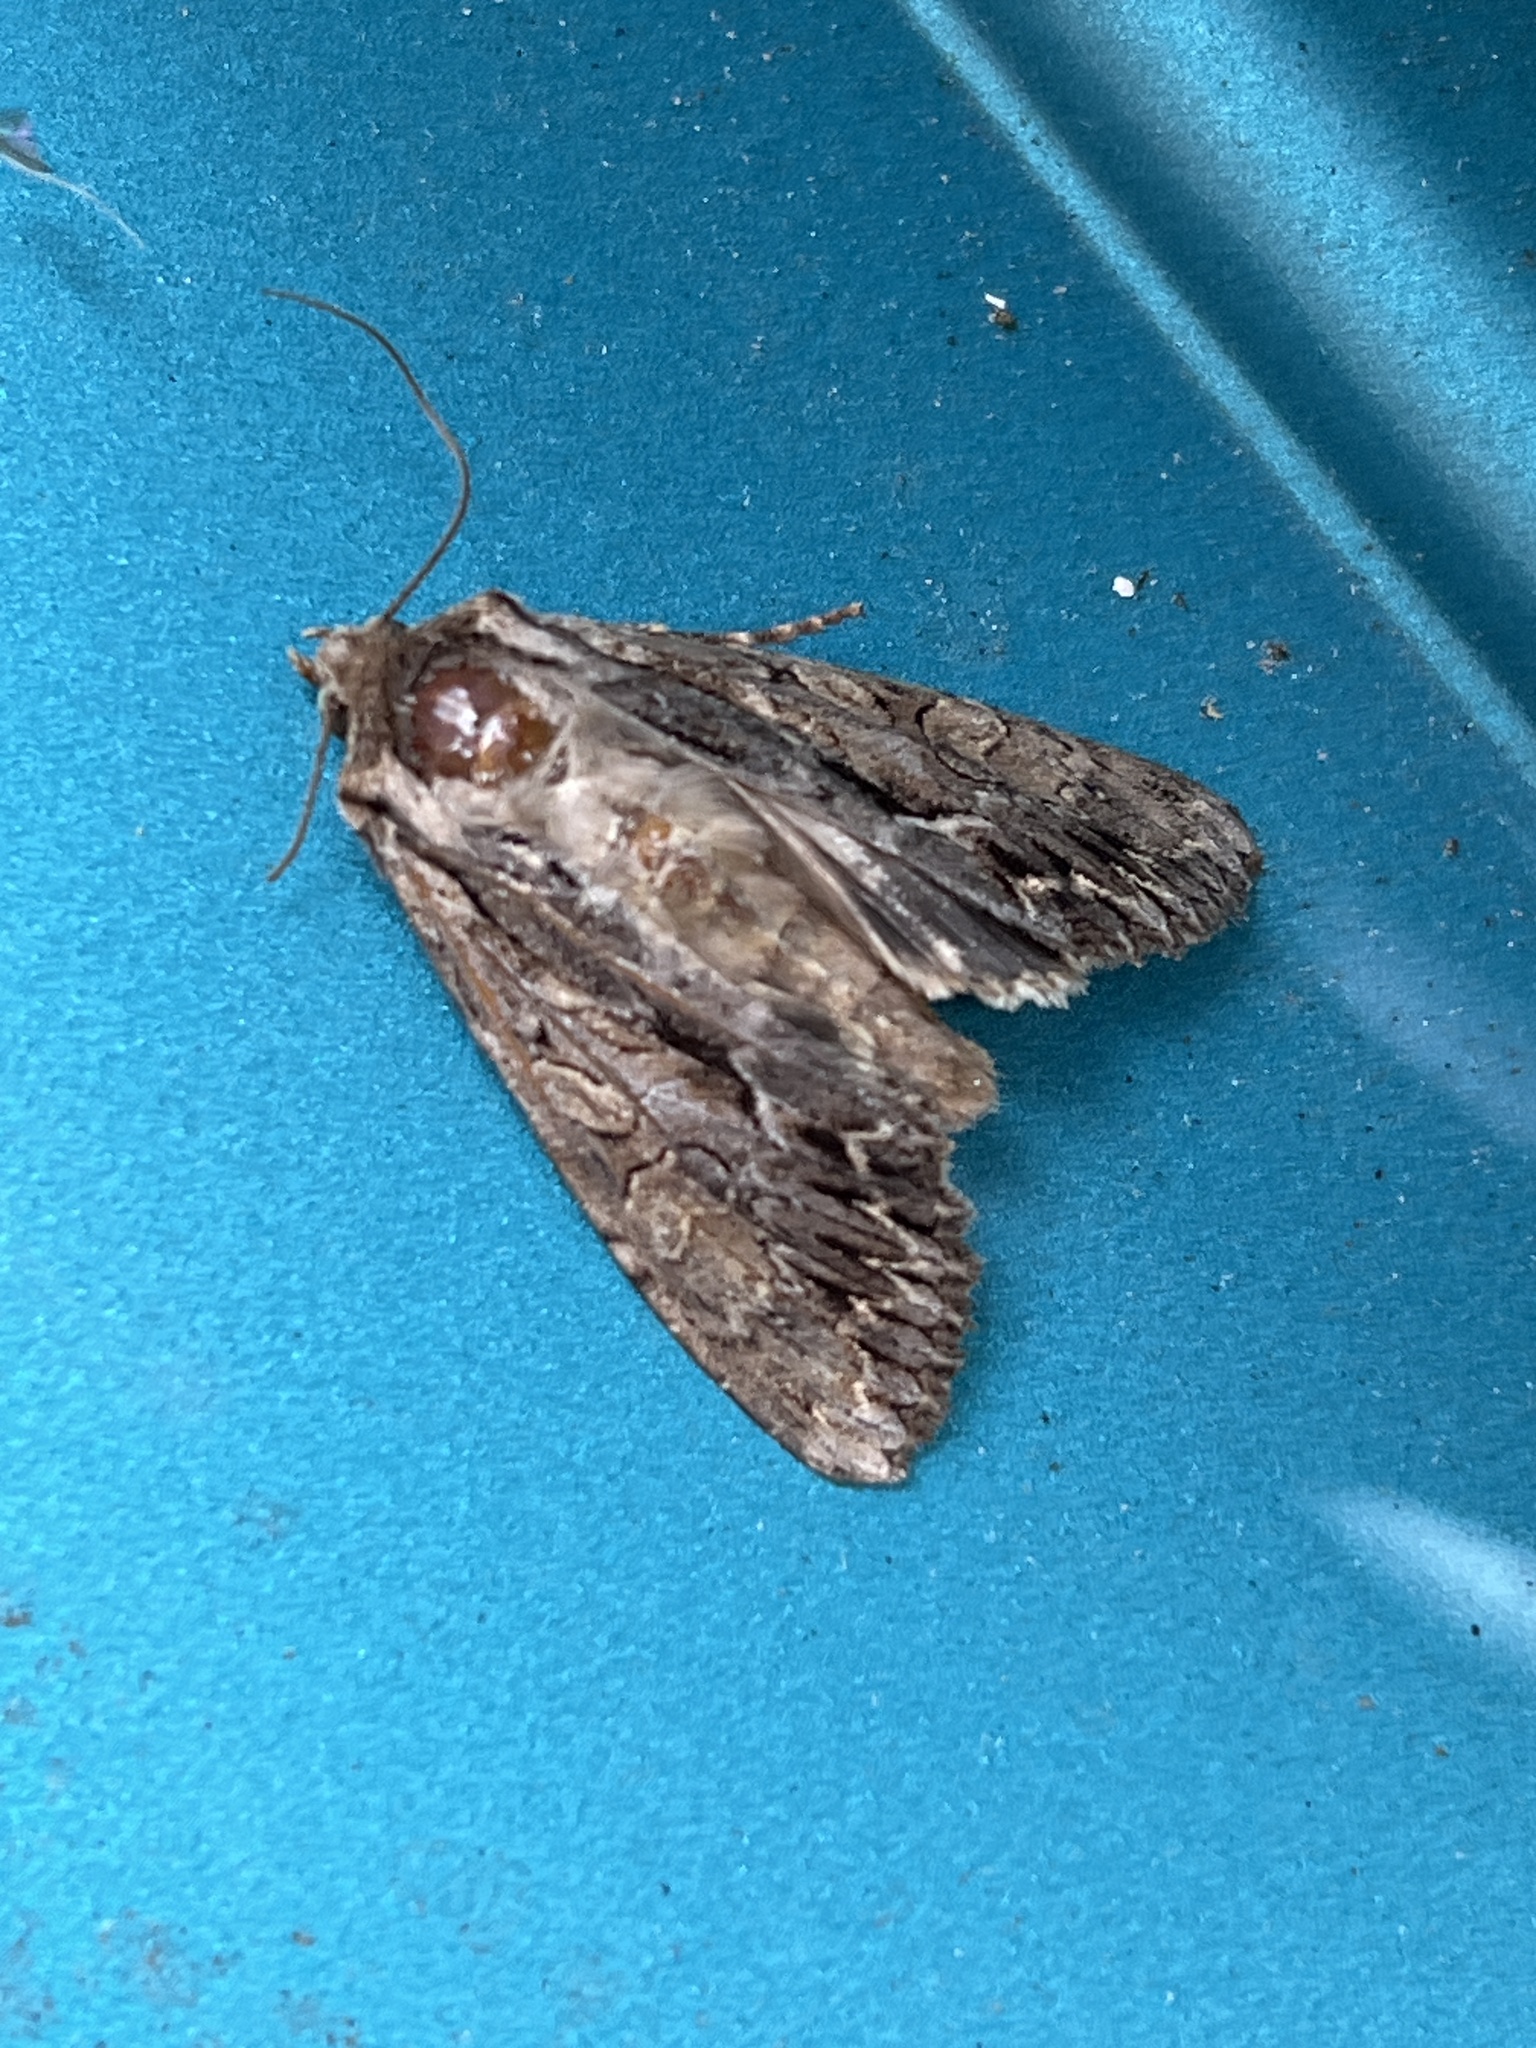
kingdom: Animalia
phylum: Arthropoda
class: Insecta
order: Lepidoptera
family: Noctuidae
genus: Apamea
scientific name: Apamea monoglypha
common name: Dark arches
